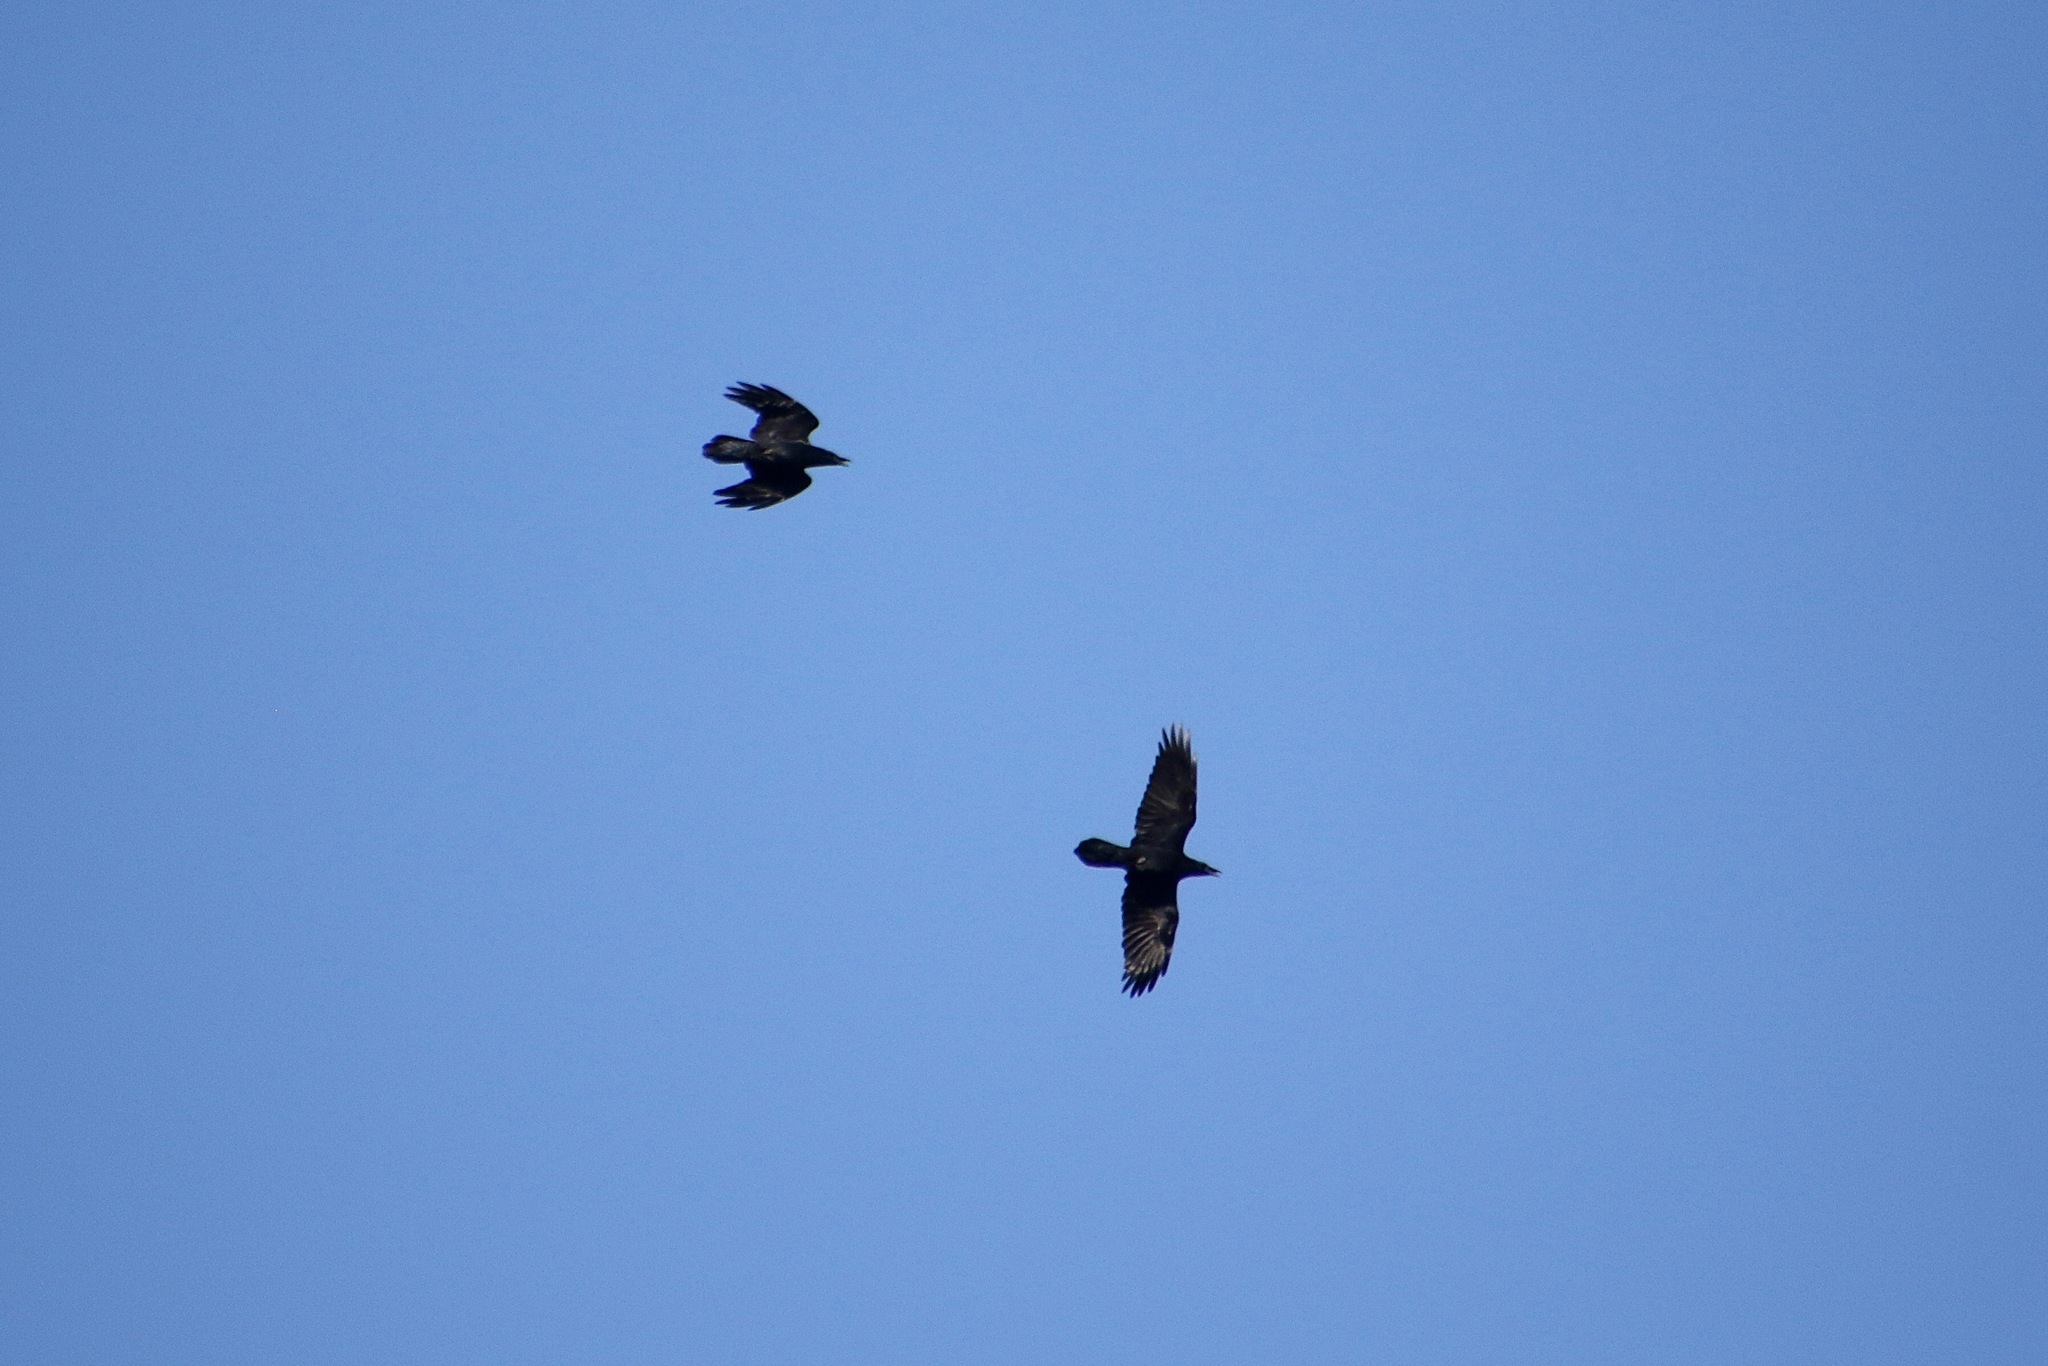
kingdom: Animalia
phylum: Chordata
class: Aves
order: Passeriformes
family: Corvidae
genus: Corvus
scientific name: Corvus corax
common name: Common raven
